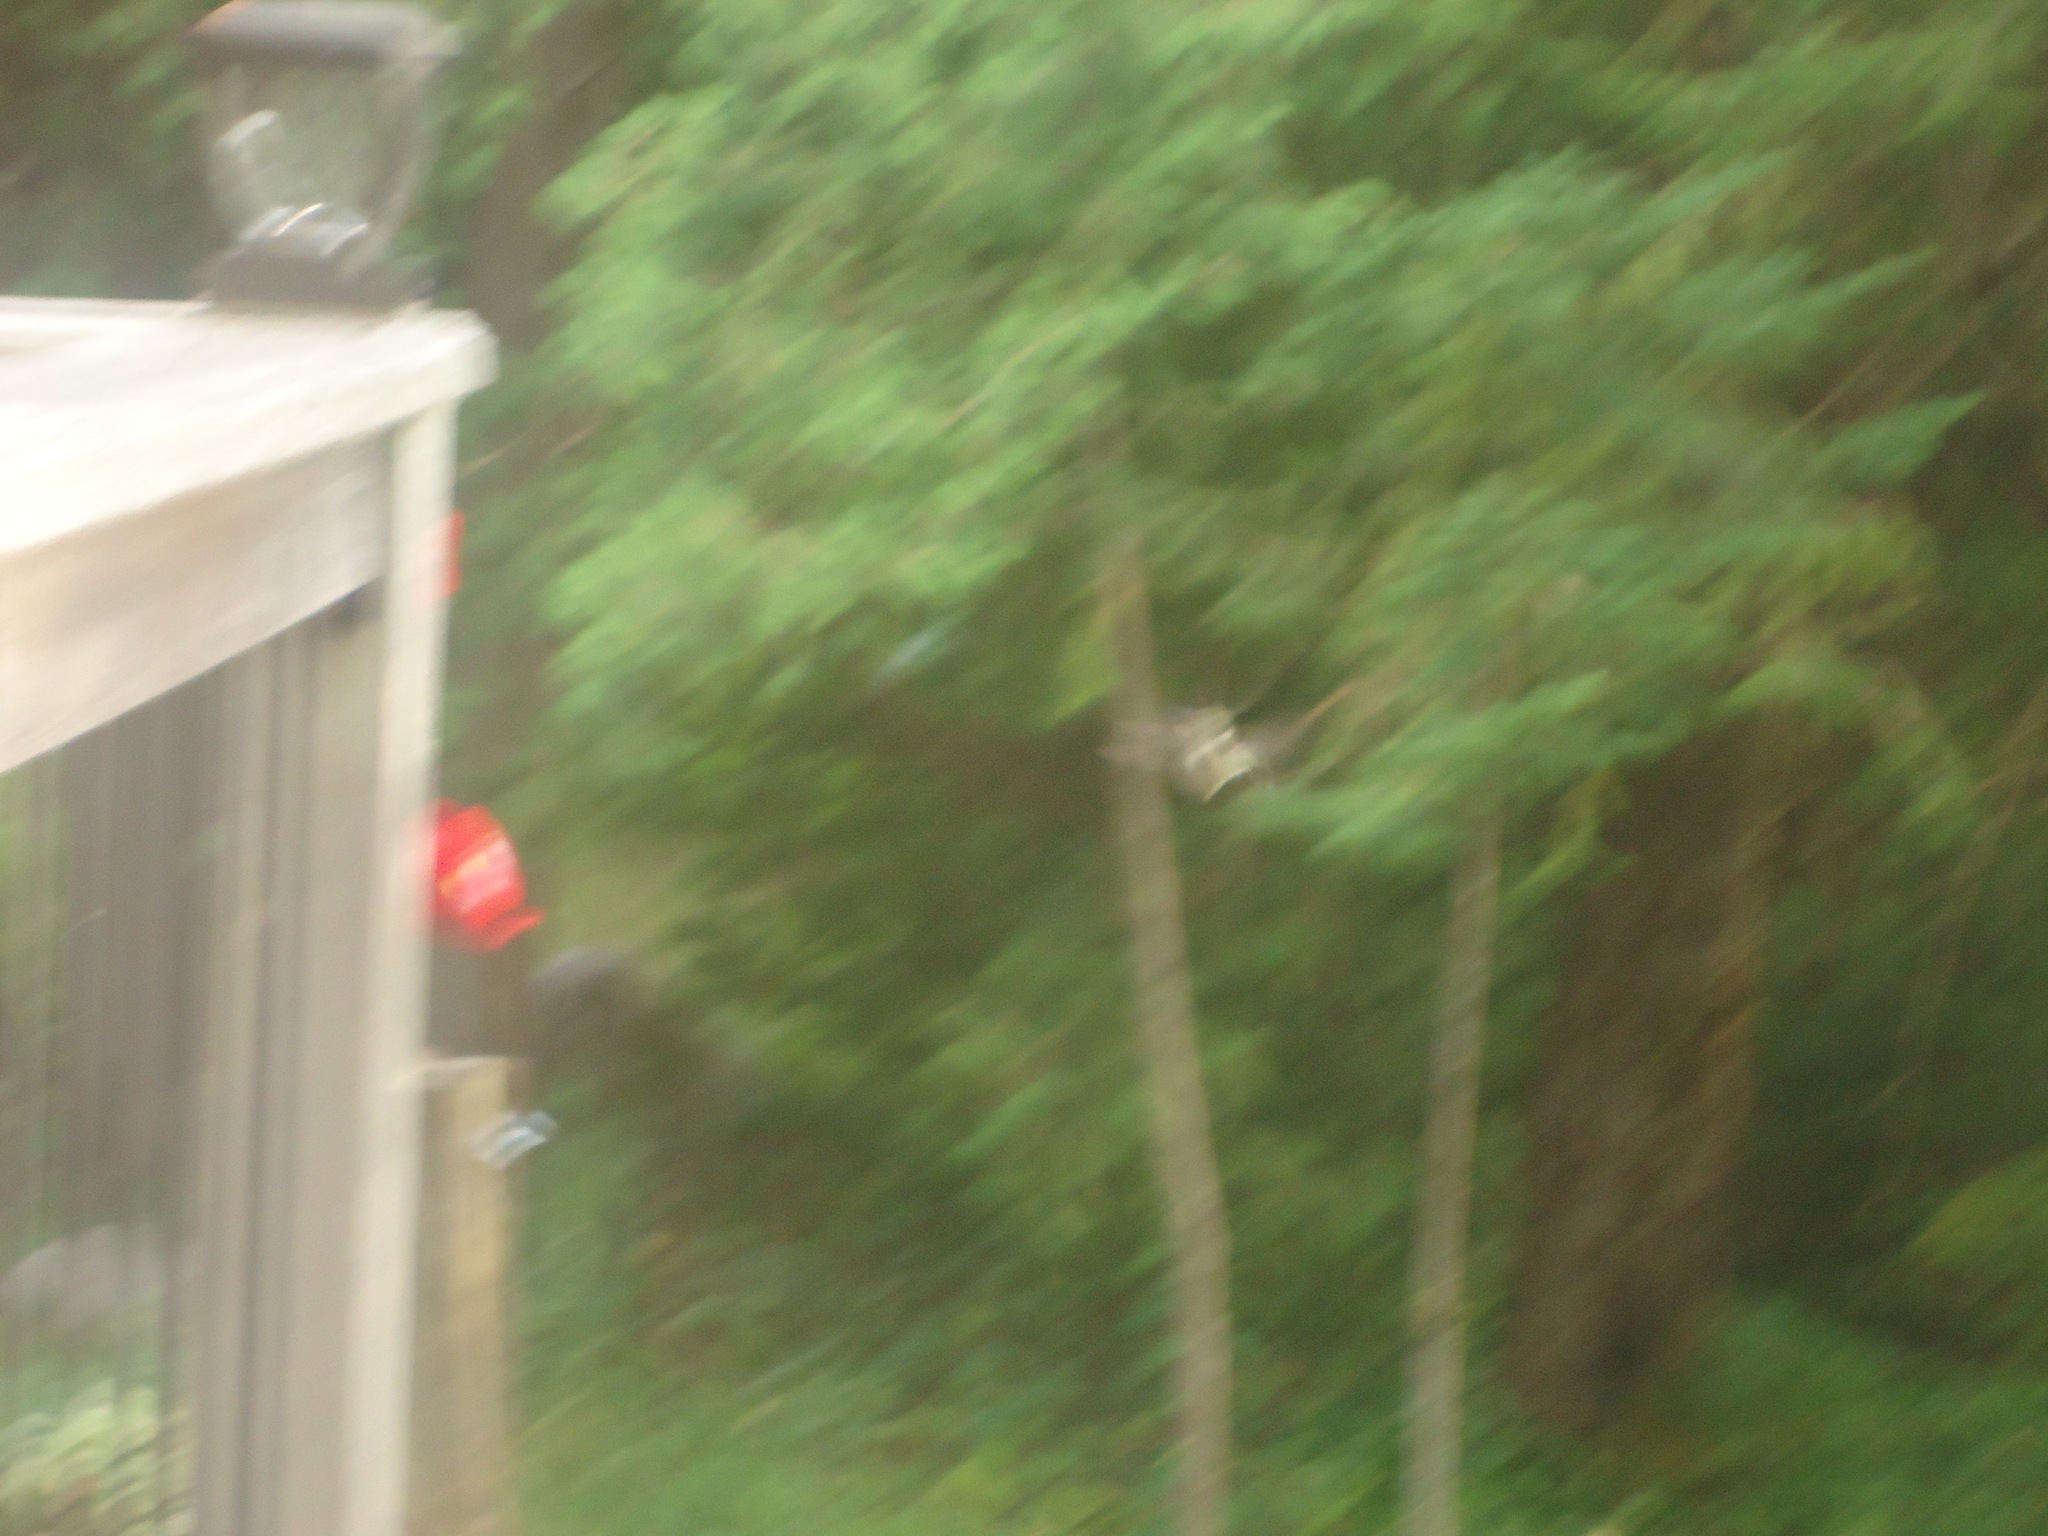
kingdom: Animalia
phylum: Chordata
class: Aves
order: Apodiformes
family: Trochilidae
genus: Archilochus
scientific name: Archilochus colubris
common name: Ruby-throated hummingbird
